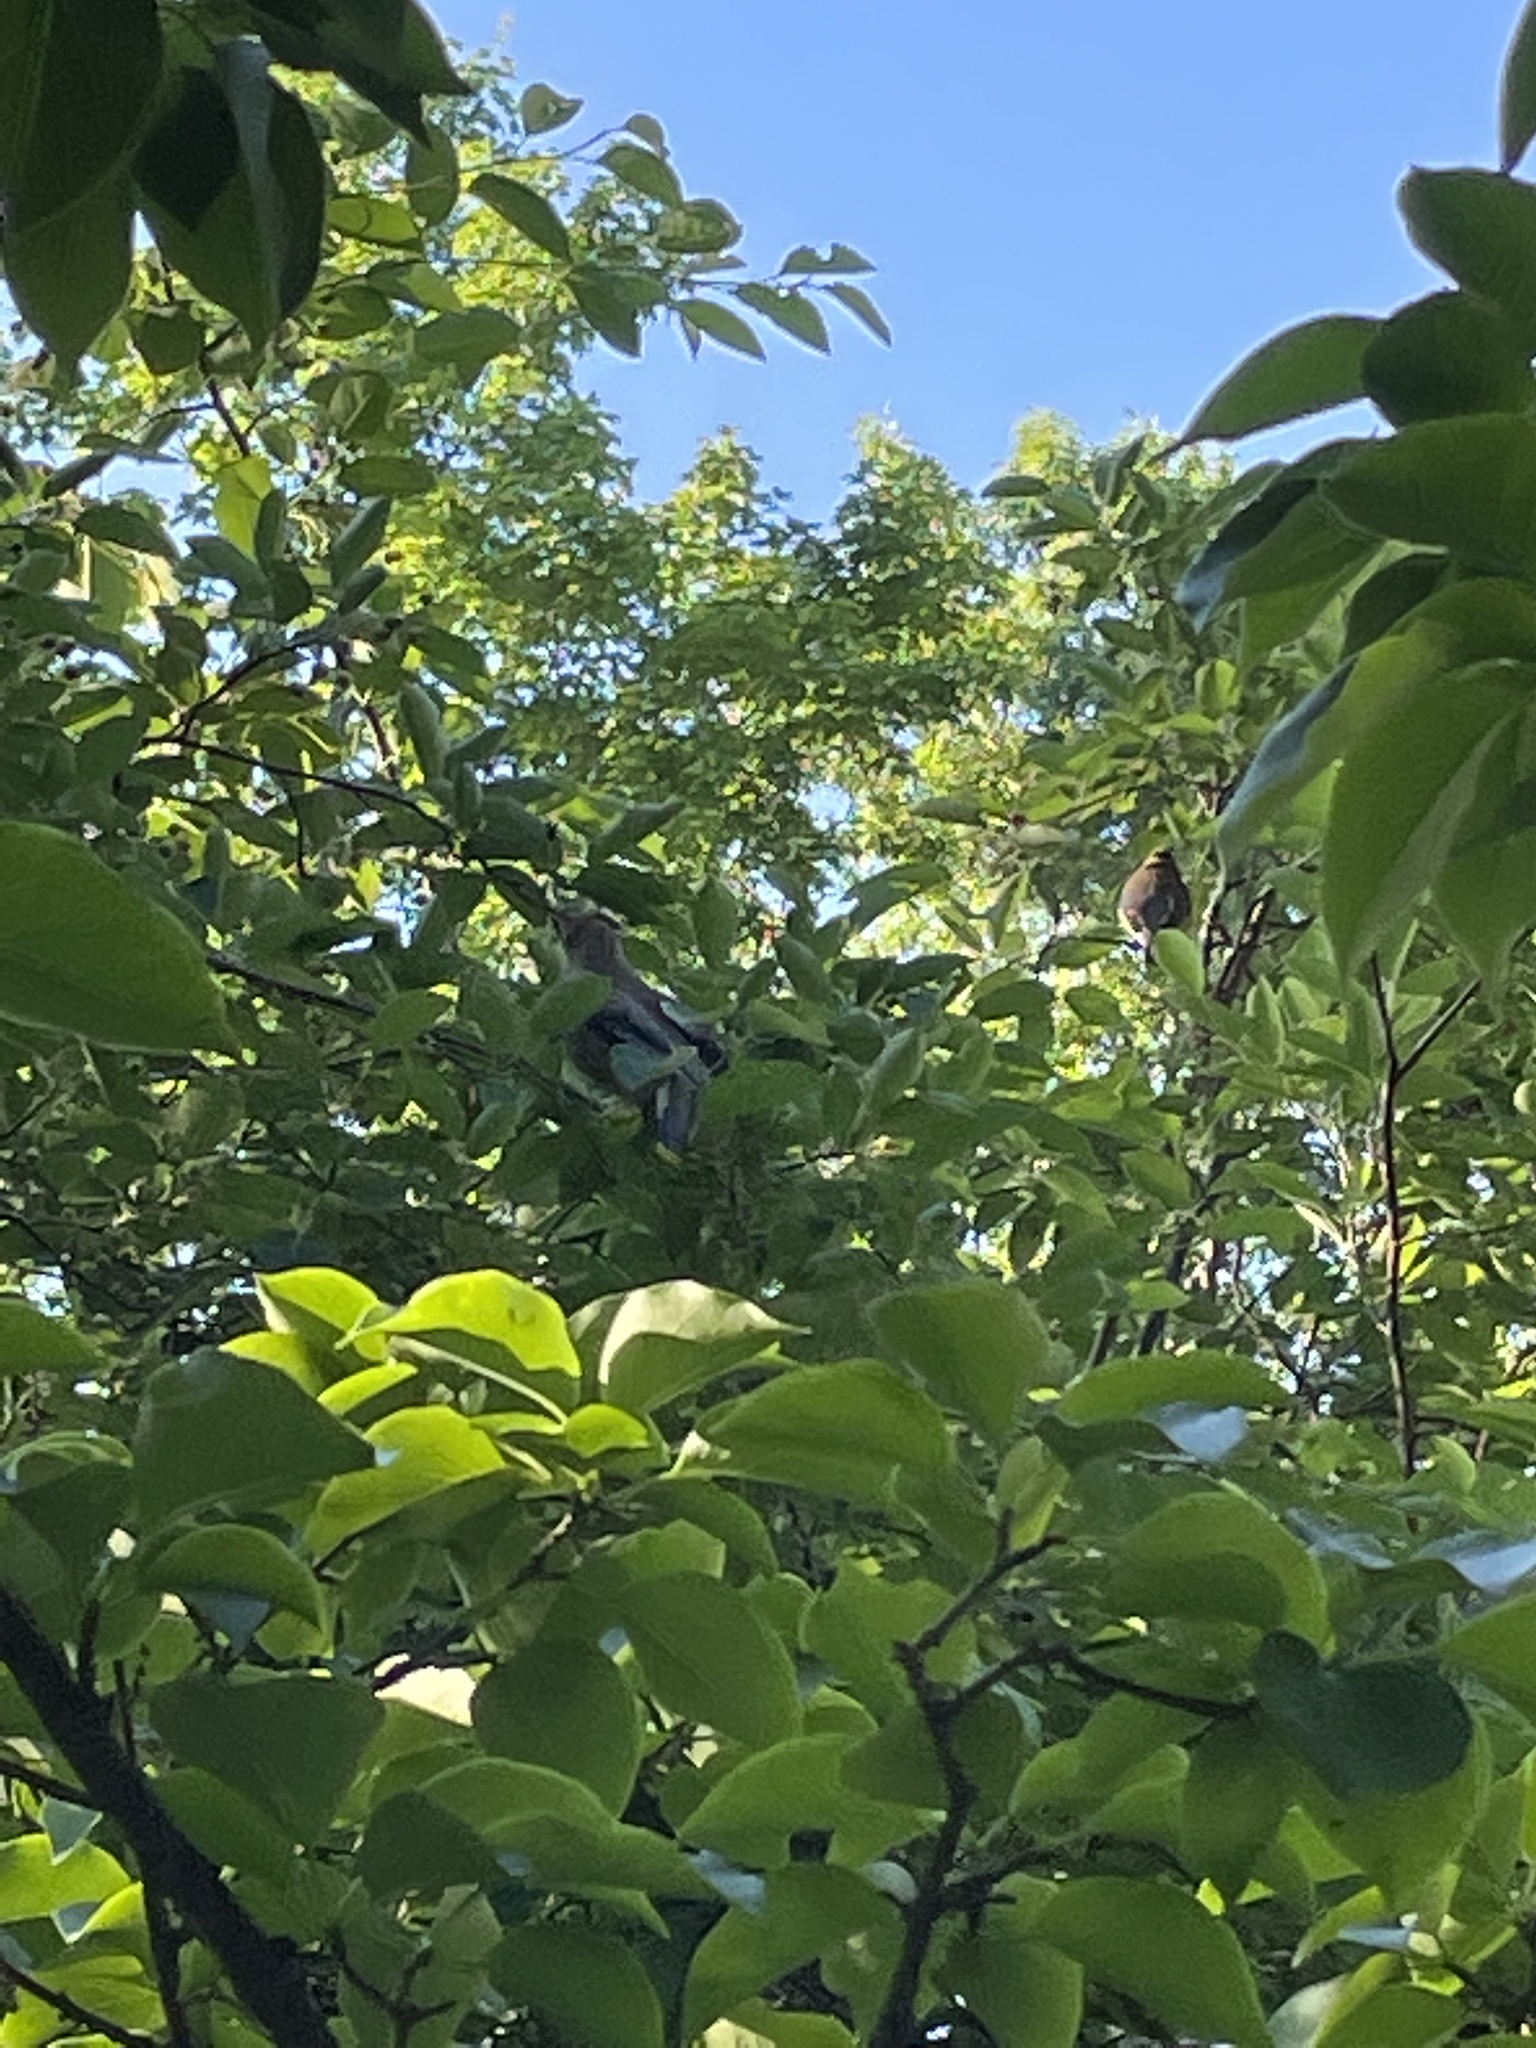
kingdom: Animalia
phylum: Chordata
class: Aves
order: Passeriformes
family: Bombycillidae
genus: Bombycilla
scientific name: Bombycilla cedrorum
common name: Cedar waxwing
